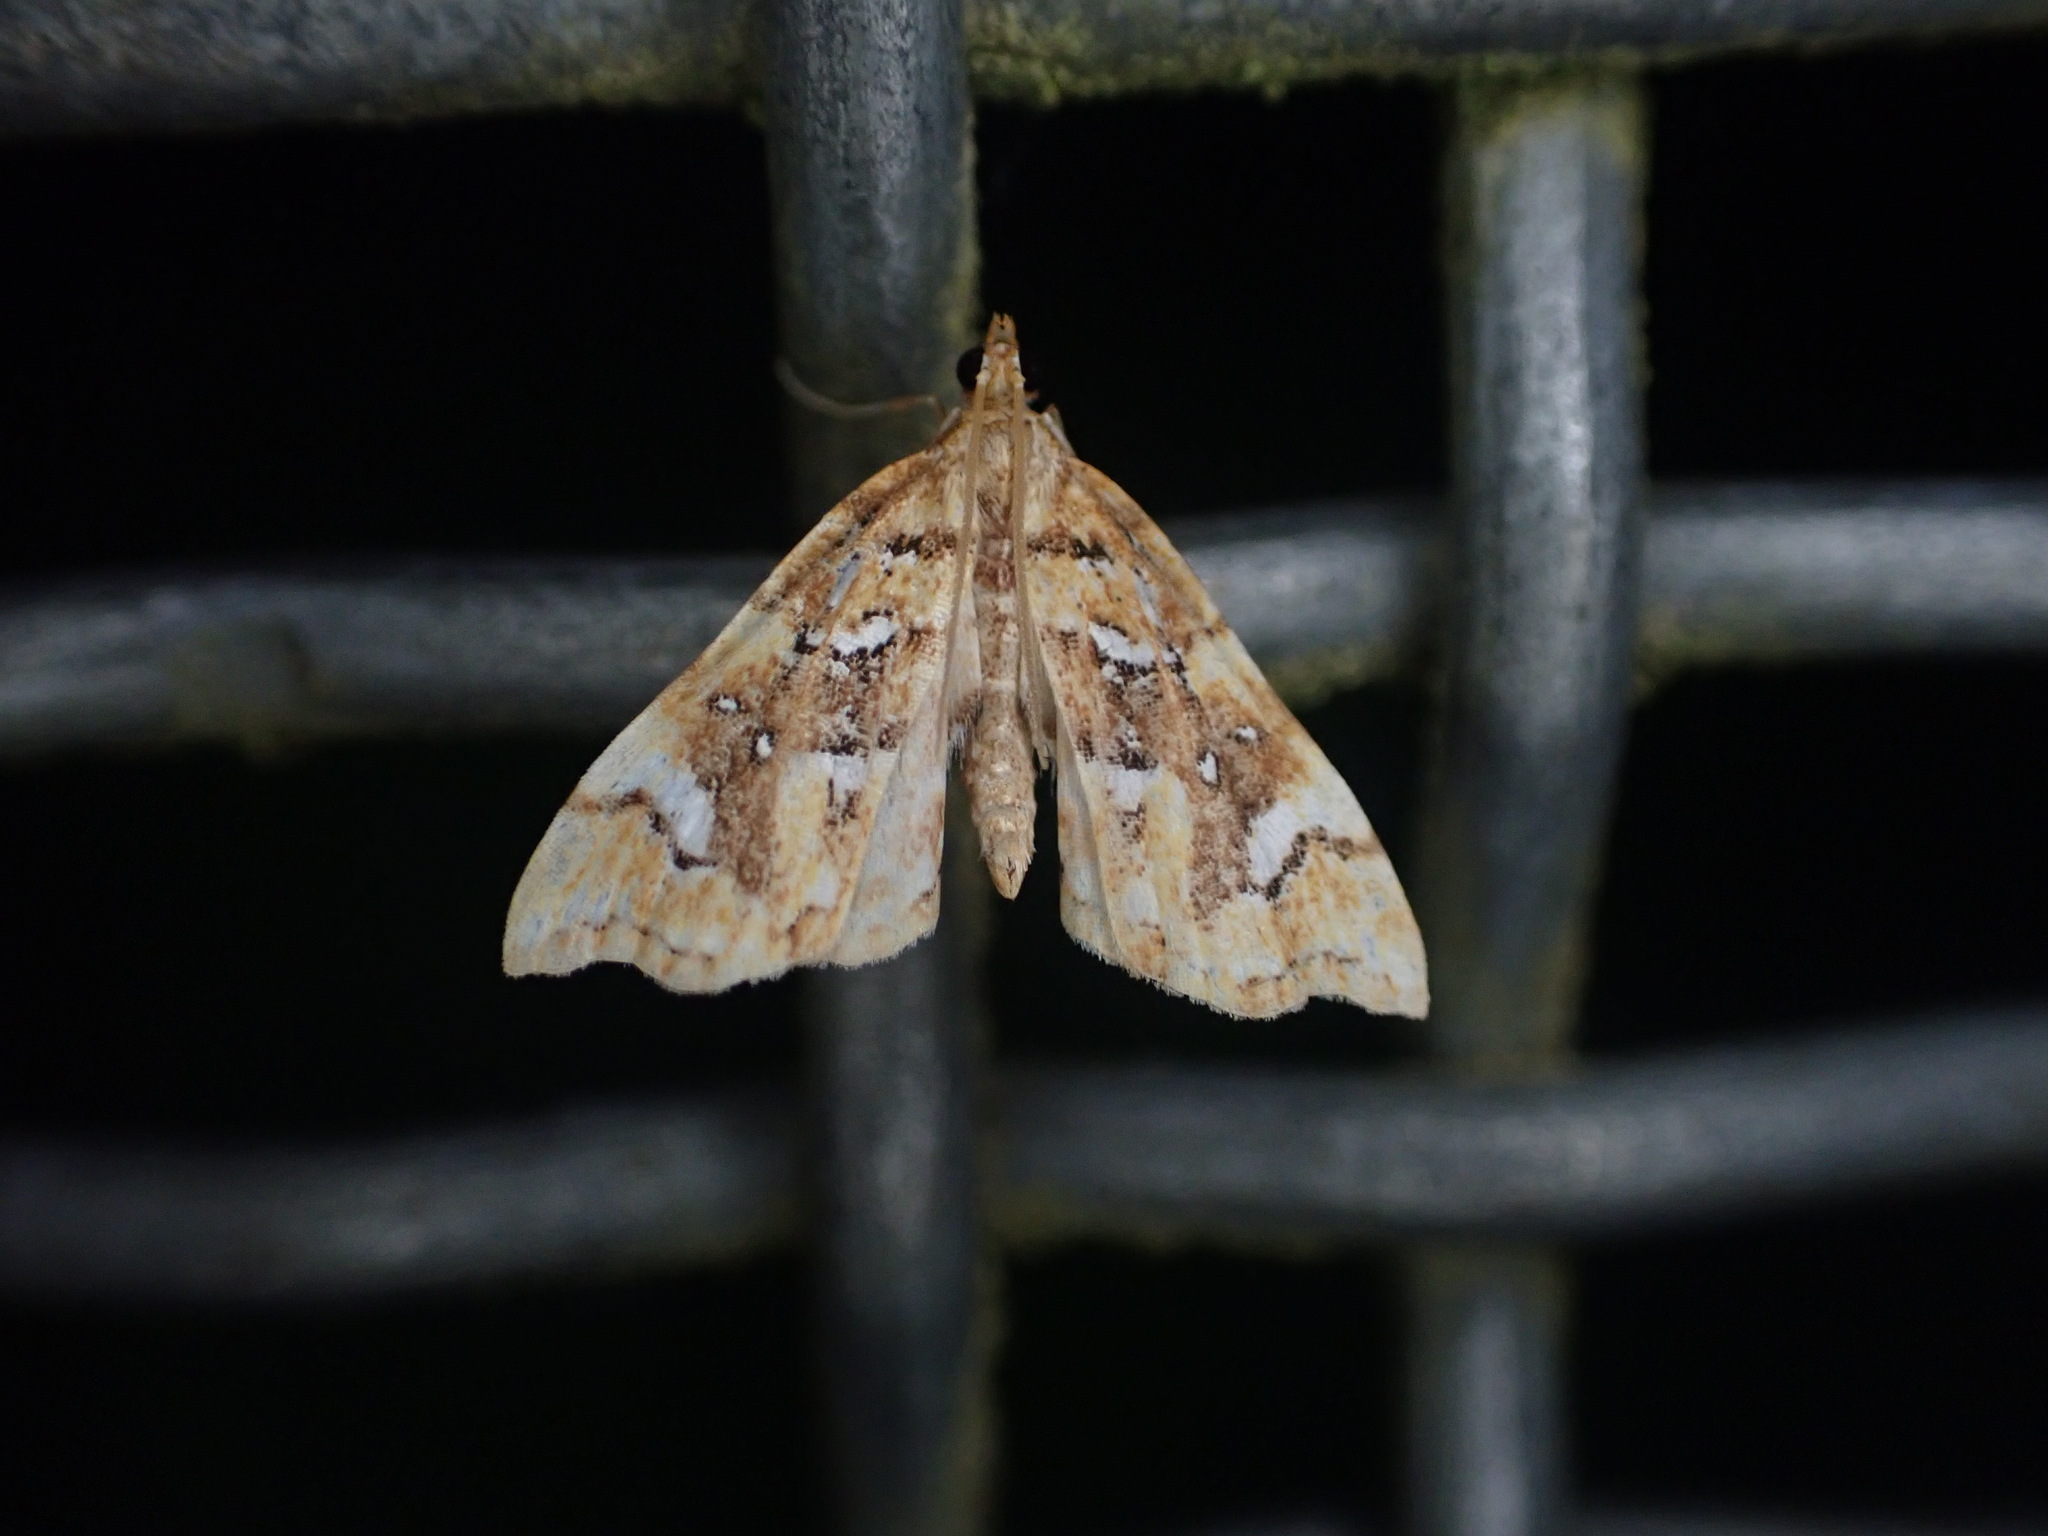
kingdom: Animalia
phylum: Arthropoda
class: Insecta
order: Lepidoptera
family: Pyralidae
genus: Musotima
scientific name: Musotima nitidalis
